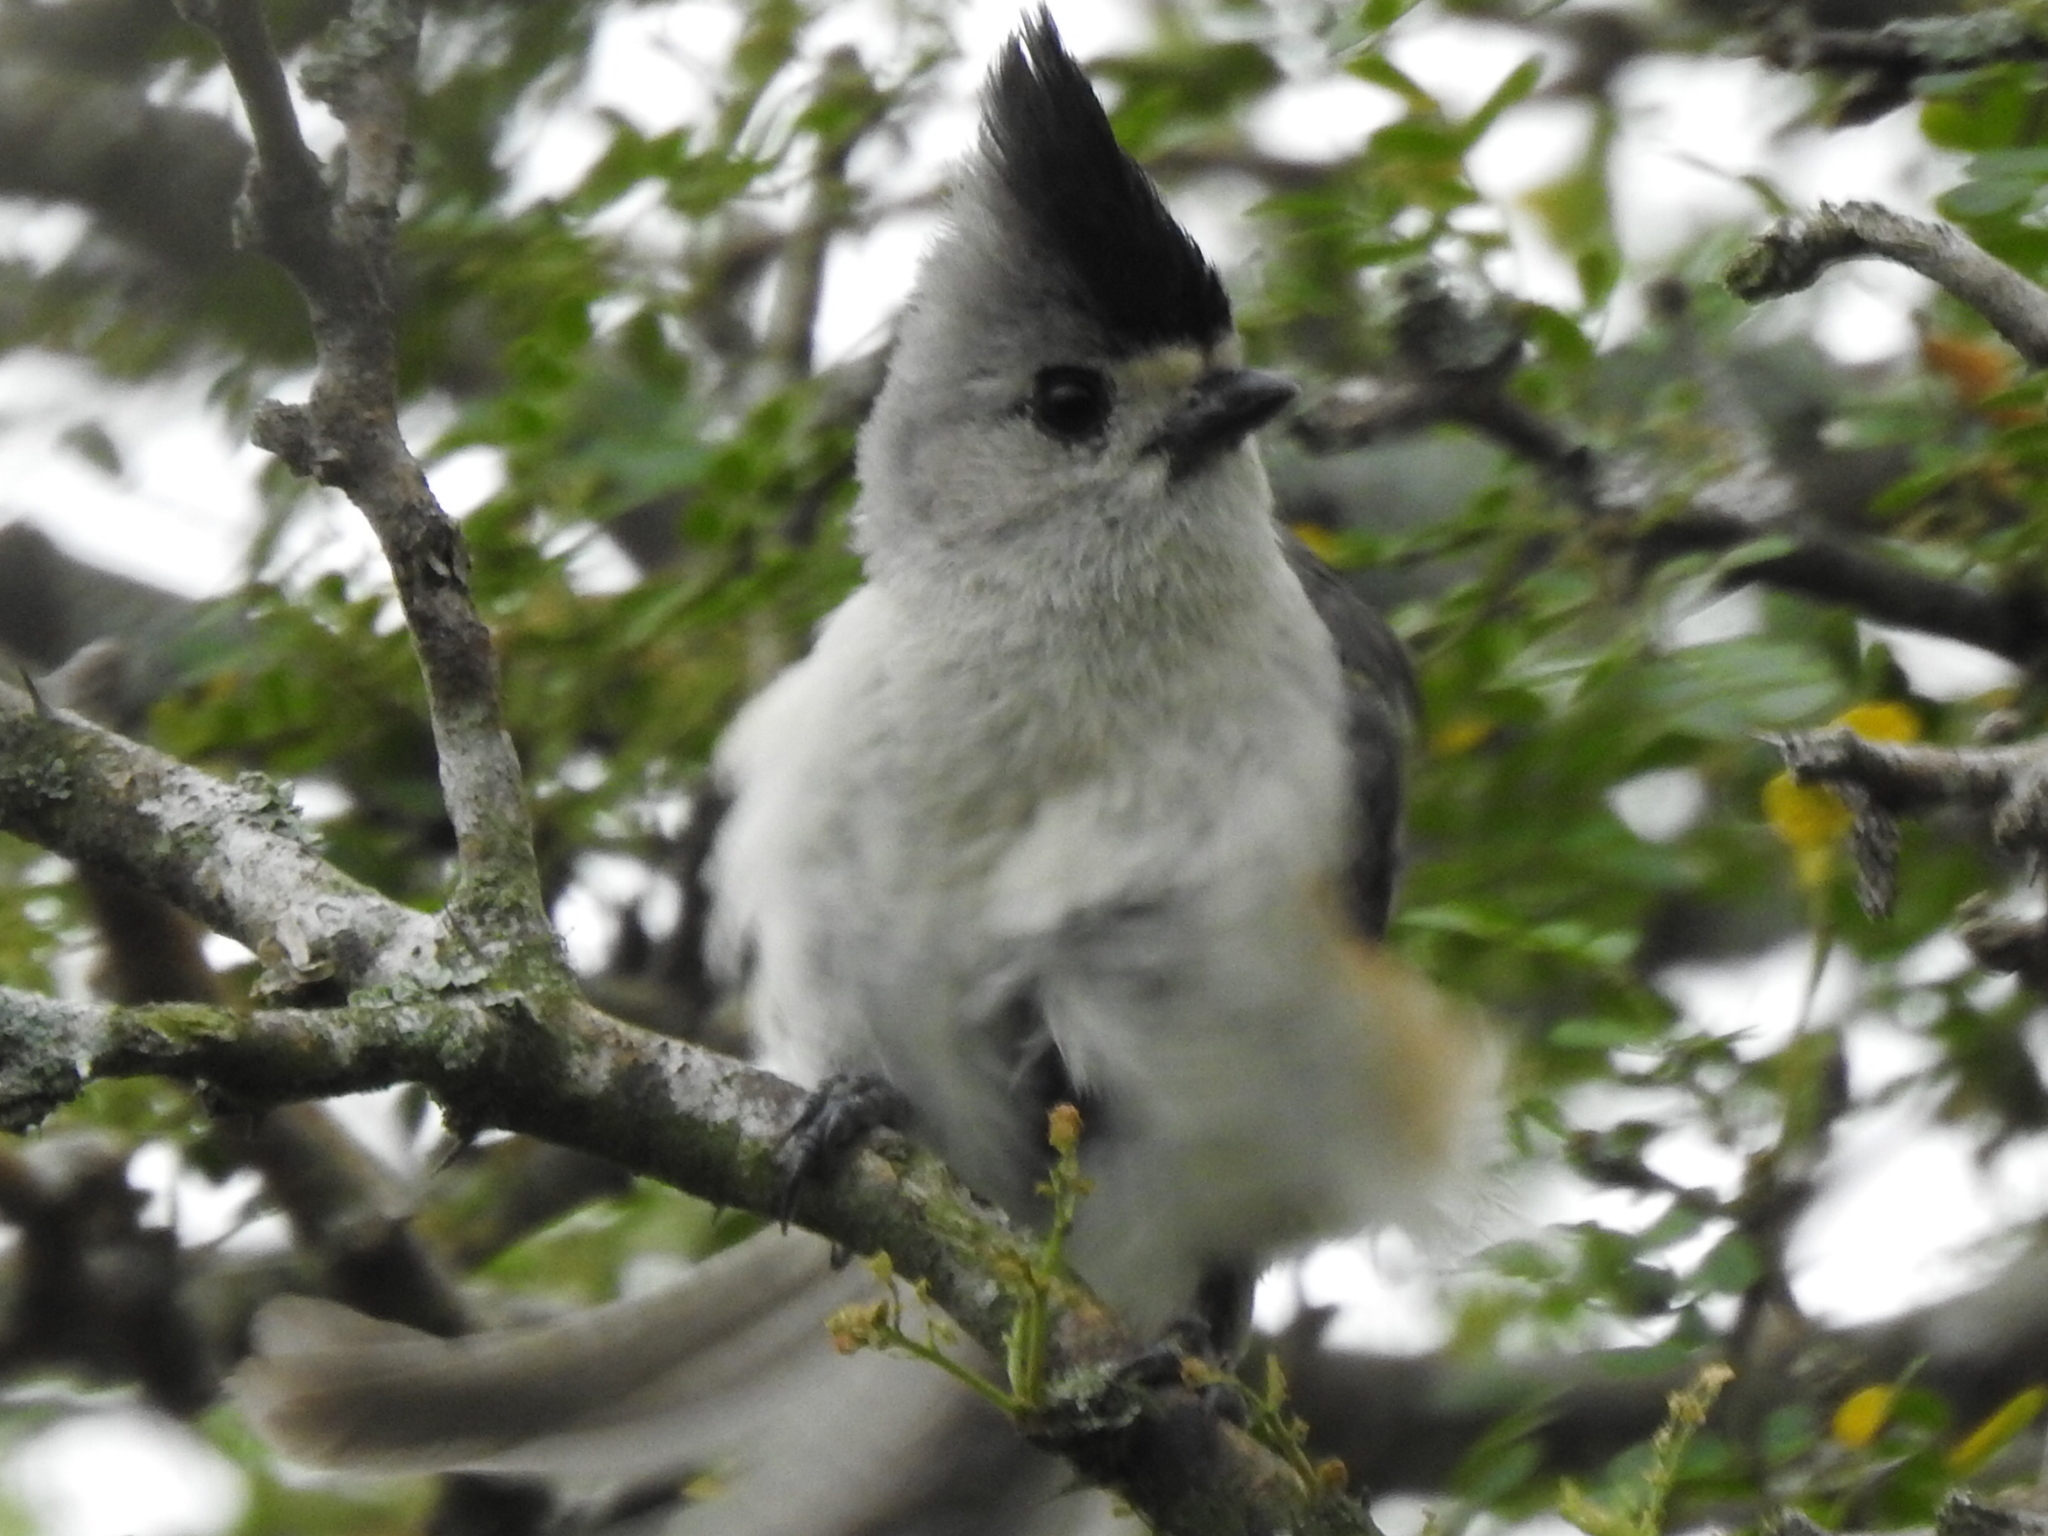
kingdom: Animalia
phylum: Chordata
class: Aves
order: Passeriformes
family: Paridae
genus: Baeolophus
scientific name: Baeolophus atricristatus
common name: Black-crested titmouse
